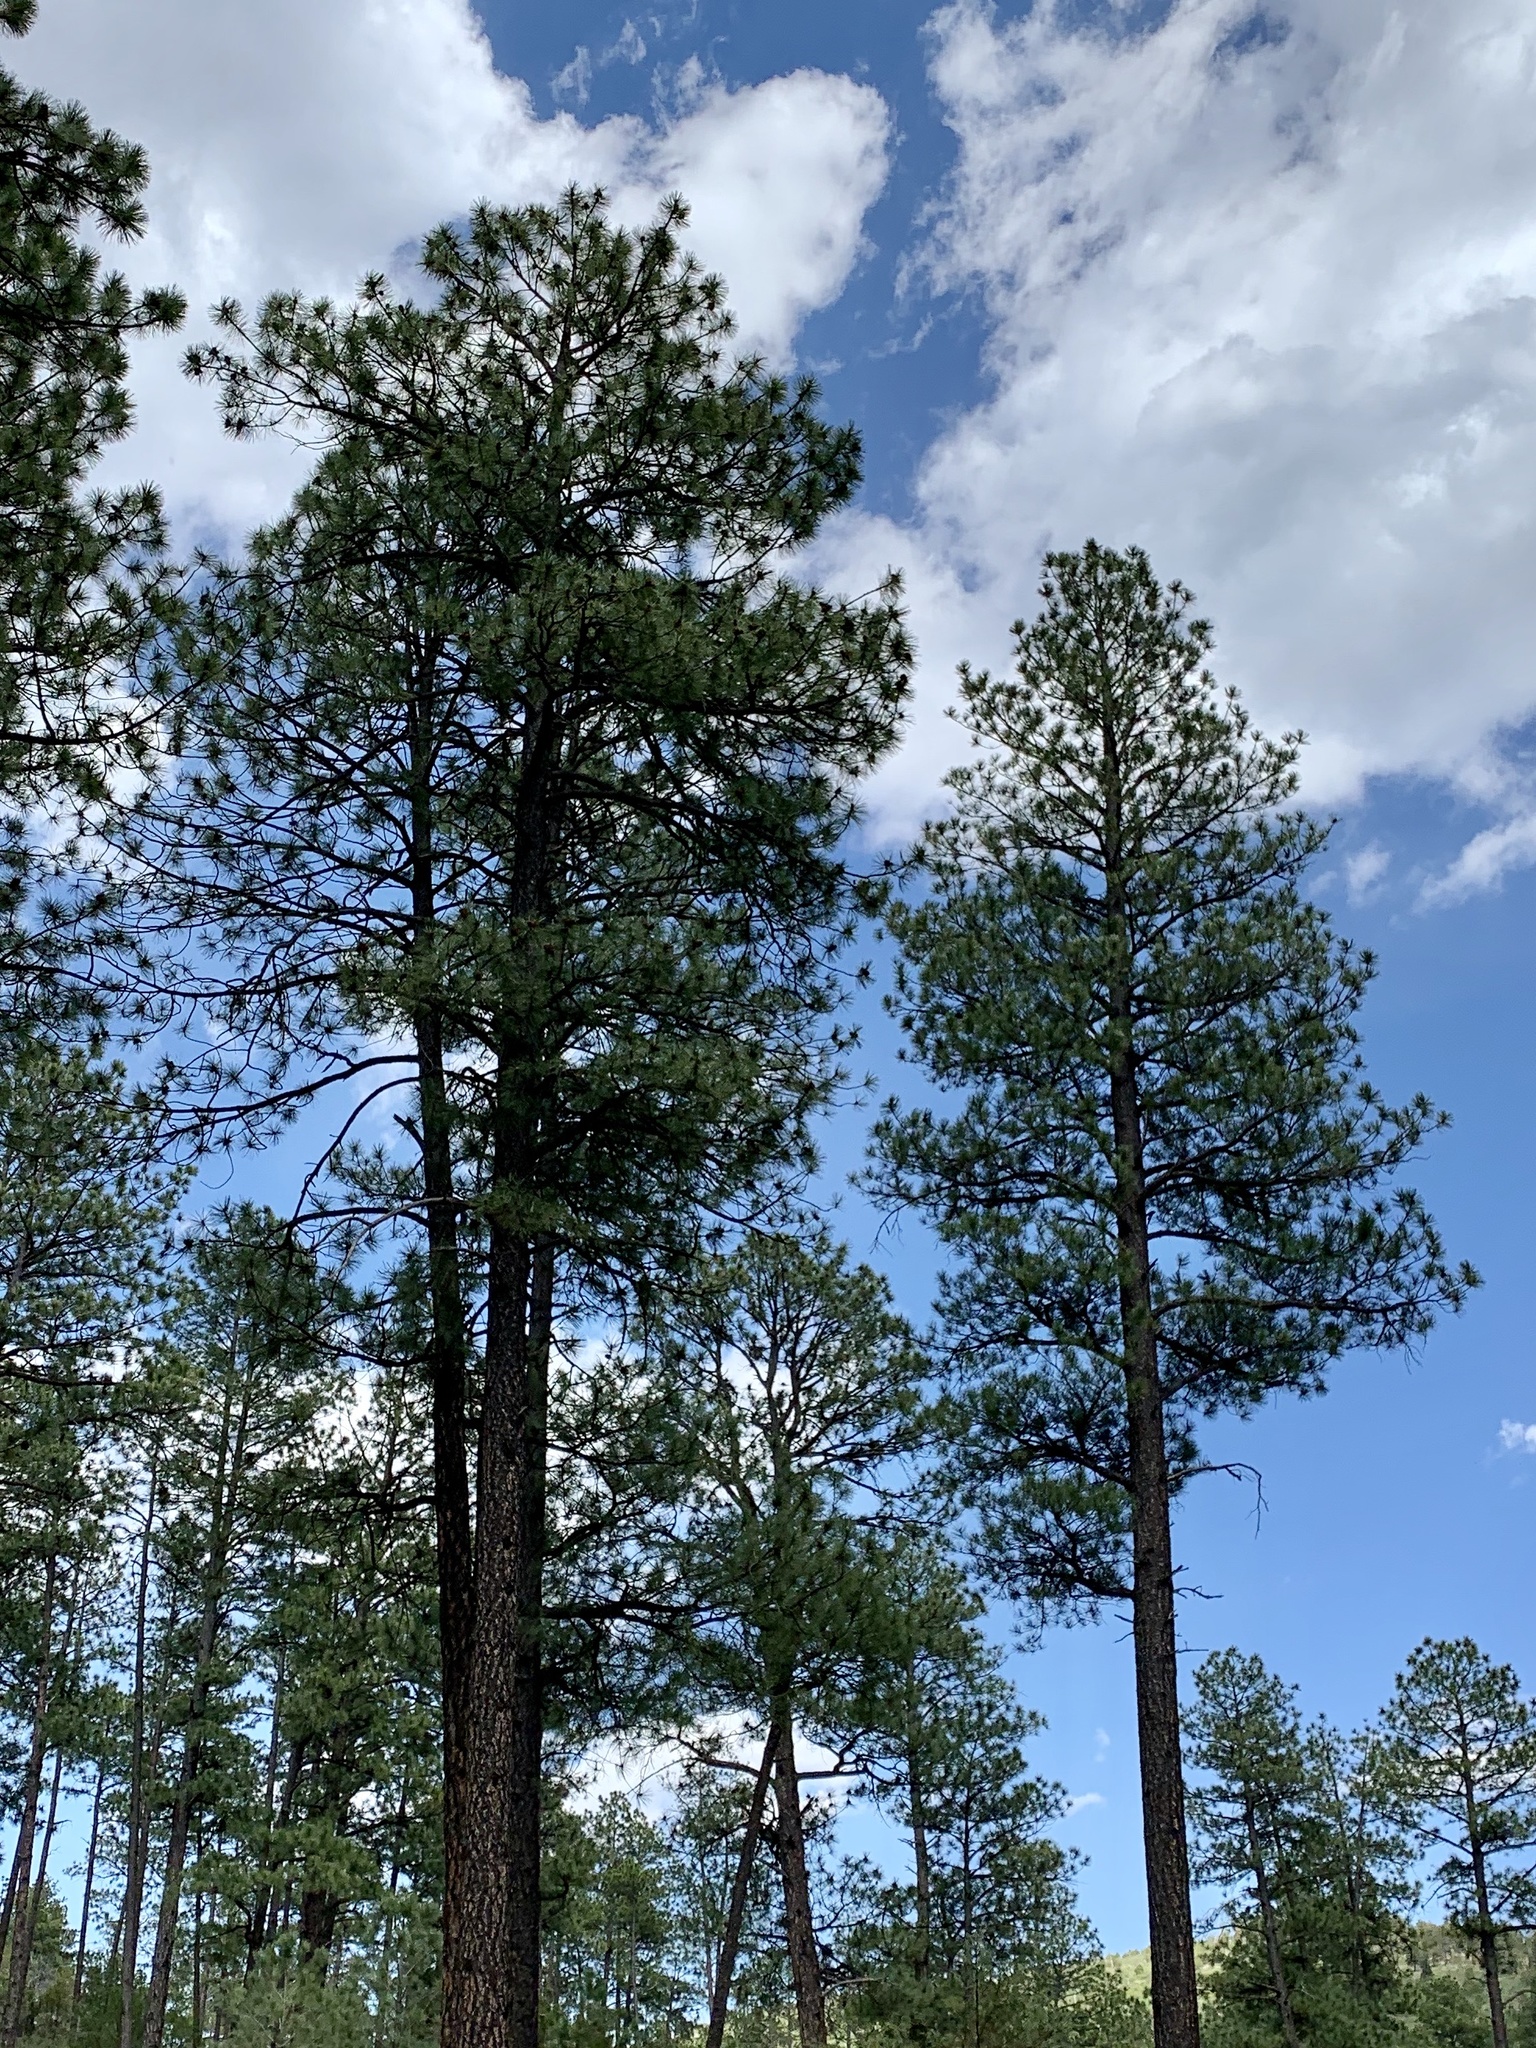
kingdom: Plantae
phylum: Tracheophyta
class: Pinopsida
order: Pinales
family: Pinaceae
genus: Pinus
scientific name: Pinus ponderosa
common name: Western yellow-pine
